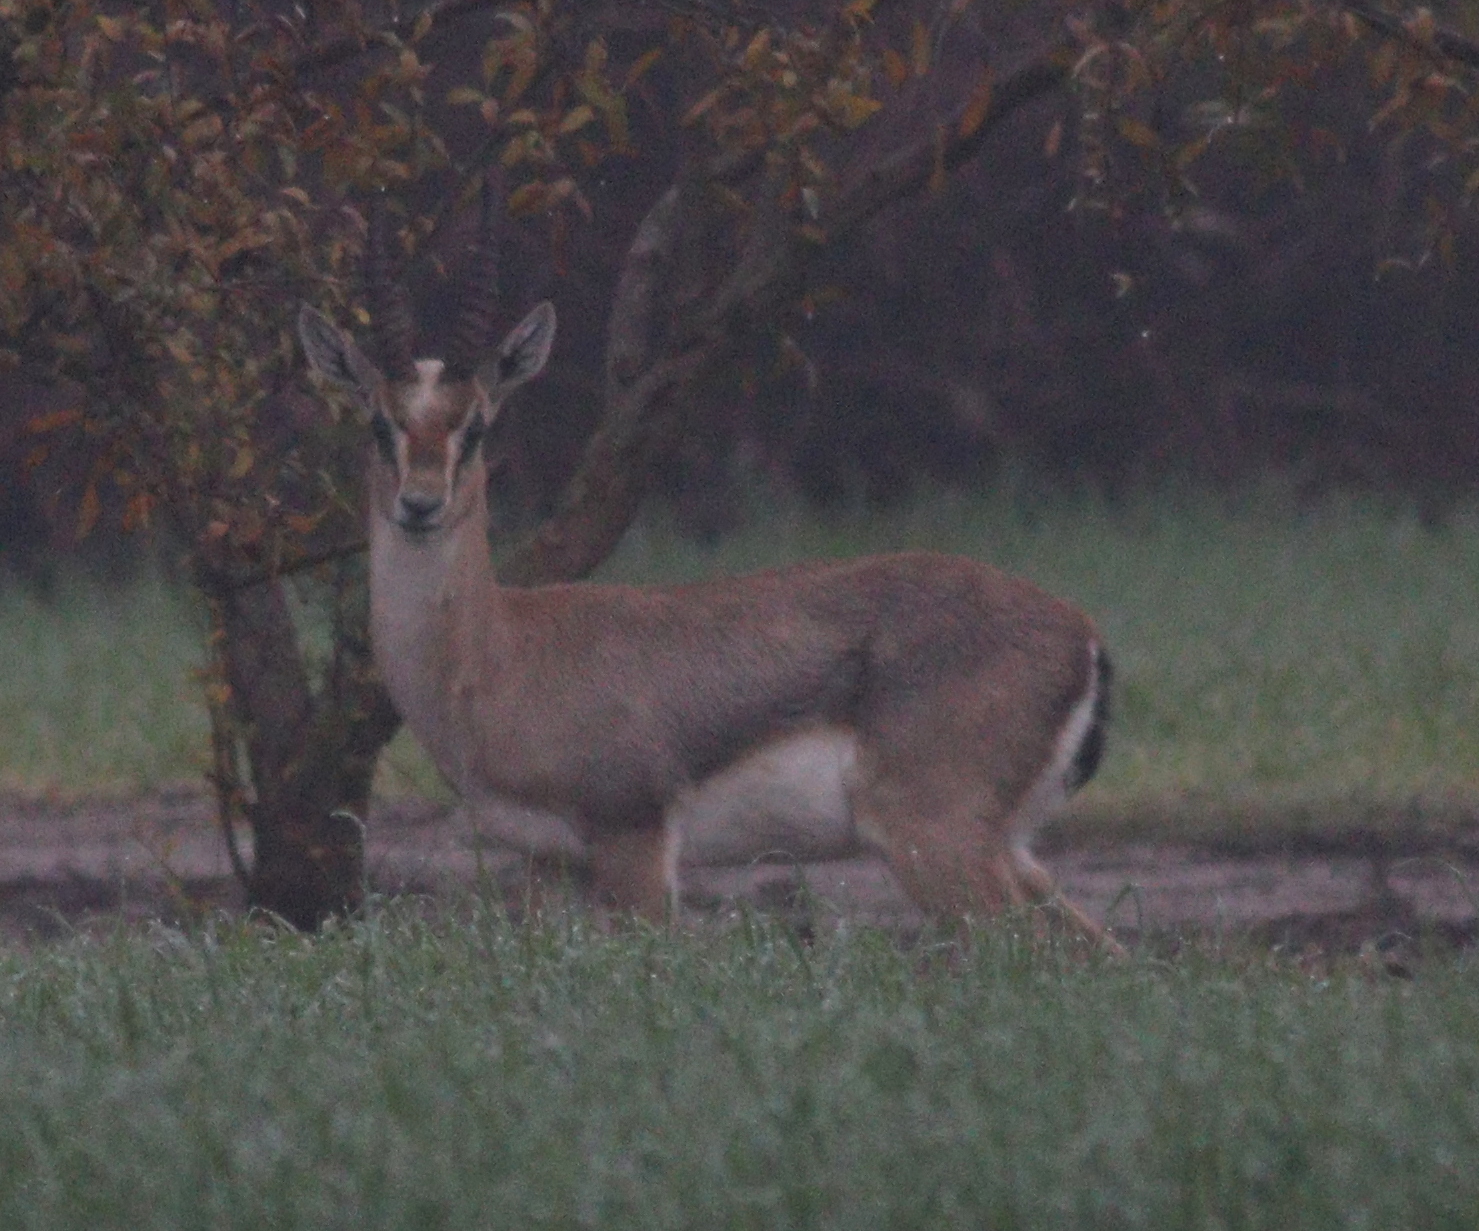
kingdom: Animalia
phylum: Chordata
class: Mammalia
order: Artiodactyla
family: Bovidae
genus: Gazella
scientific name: Gazella gazella
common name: Mountain gazelle
